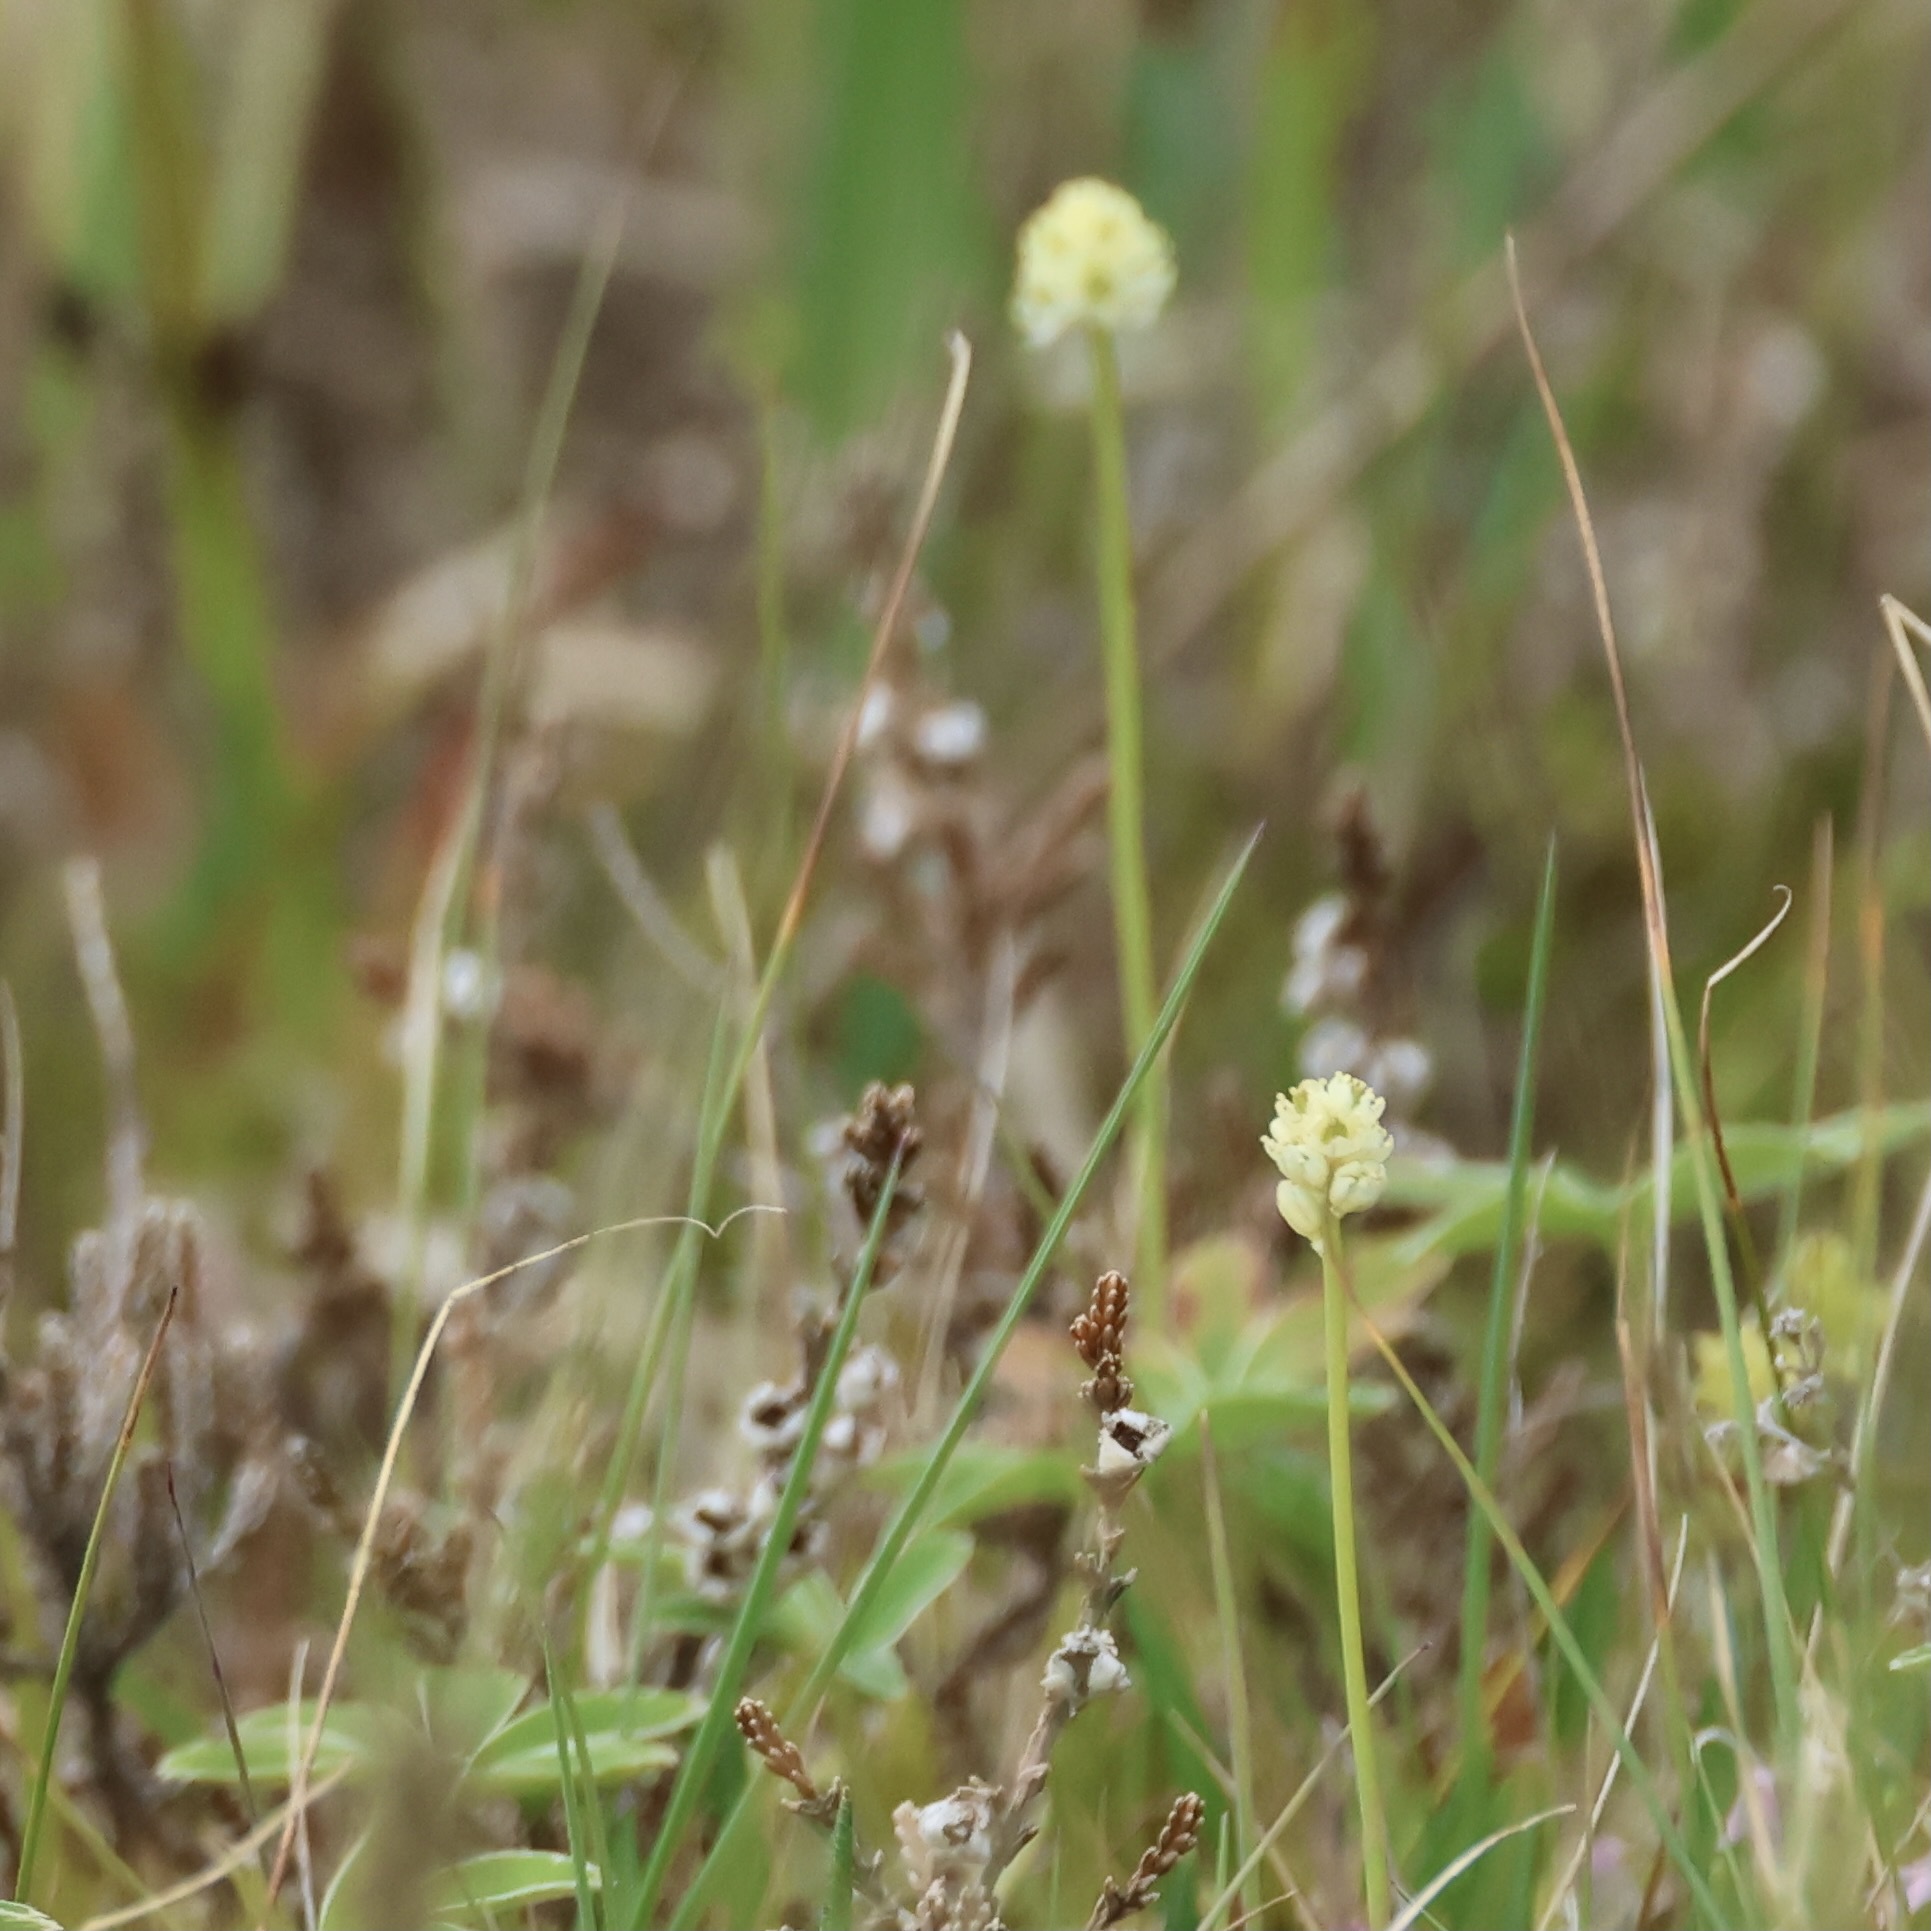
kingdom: Plantae
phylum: Tracheophyta
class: Liliopsida
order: Alismatales
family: Tofieldiaceae
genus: Tofieldia
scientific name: Tofieldia pusilla
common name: Scottish false asphodel
